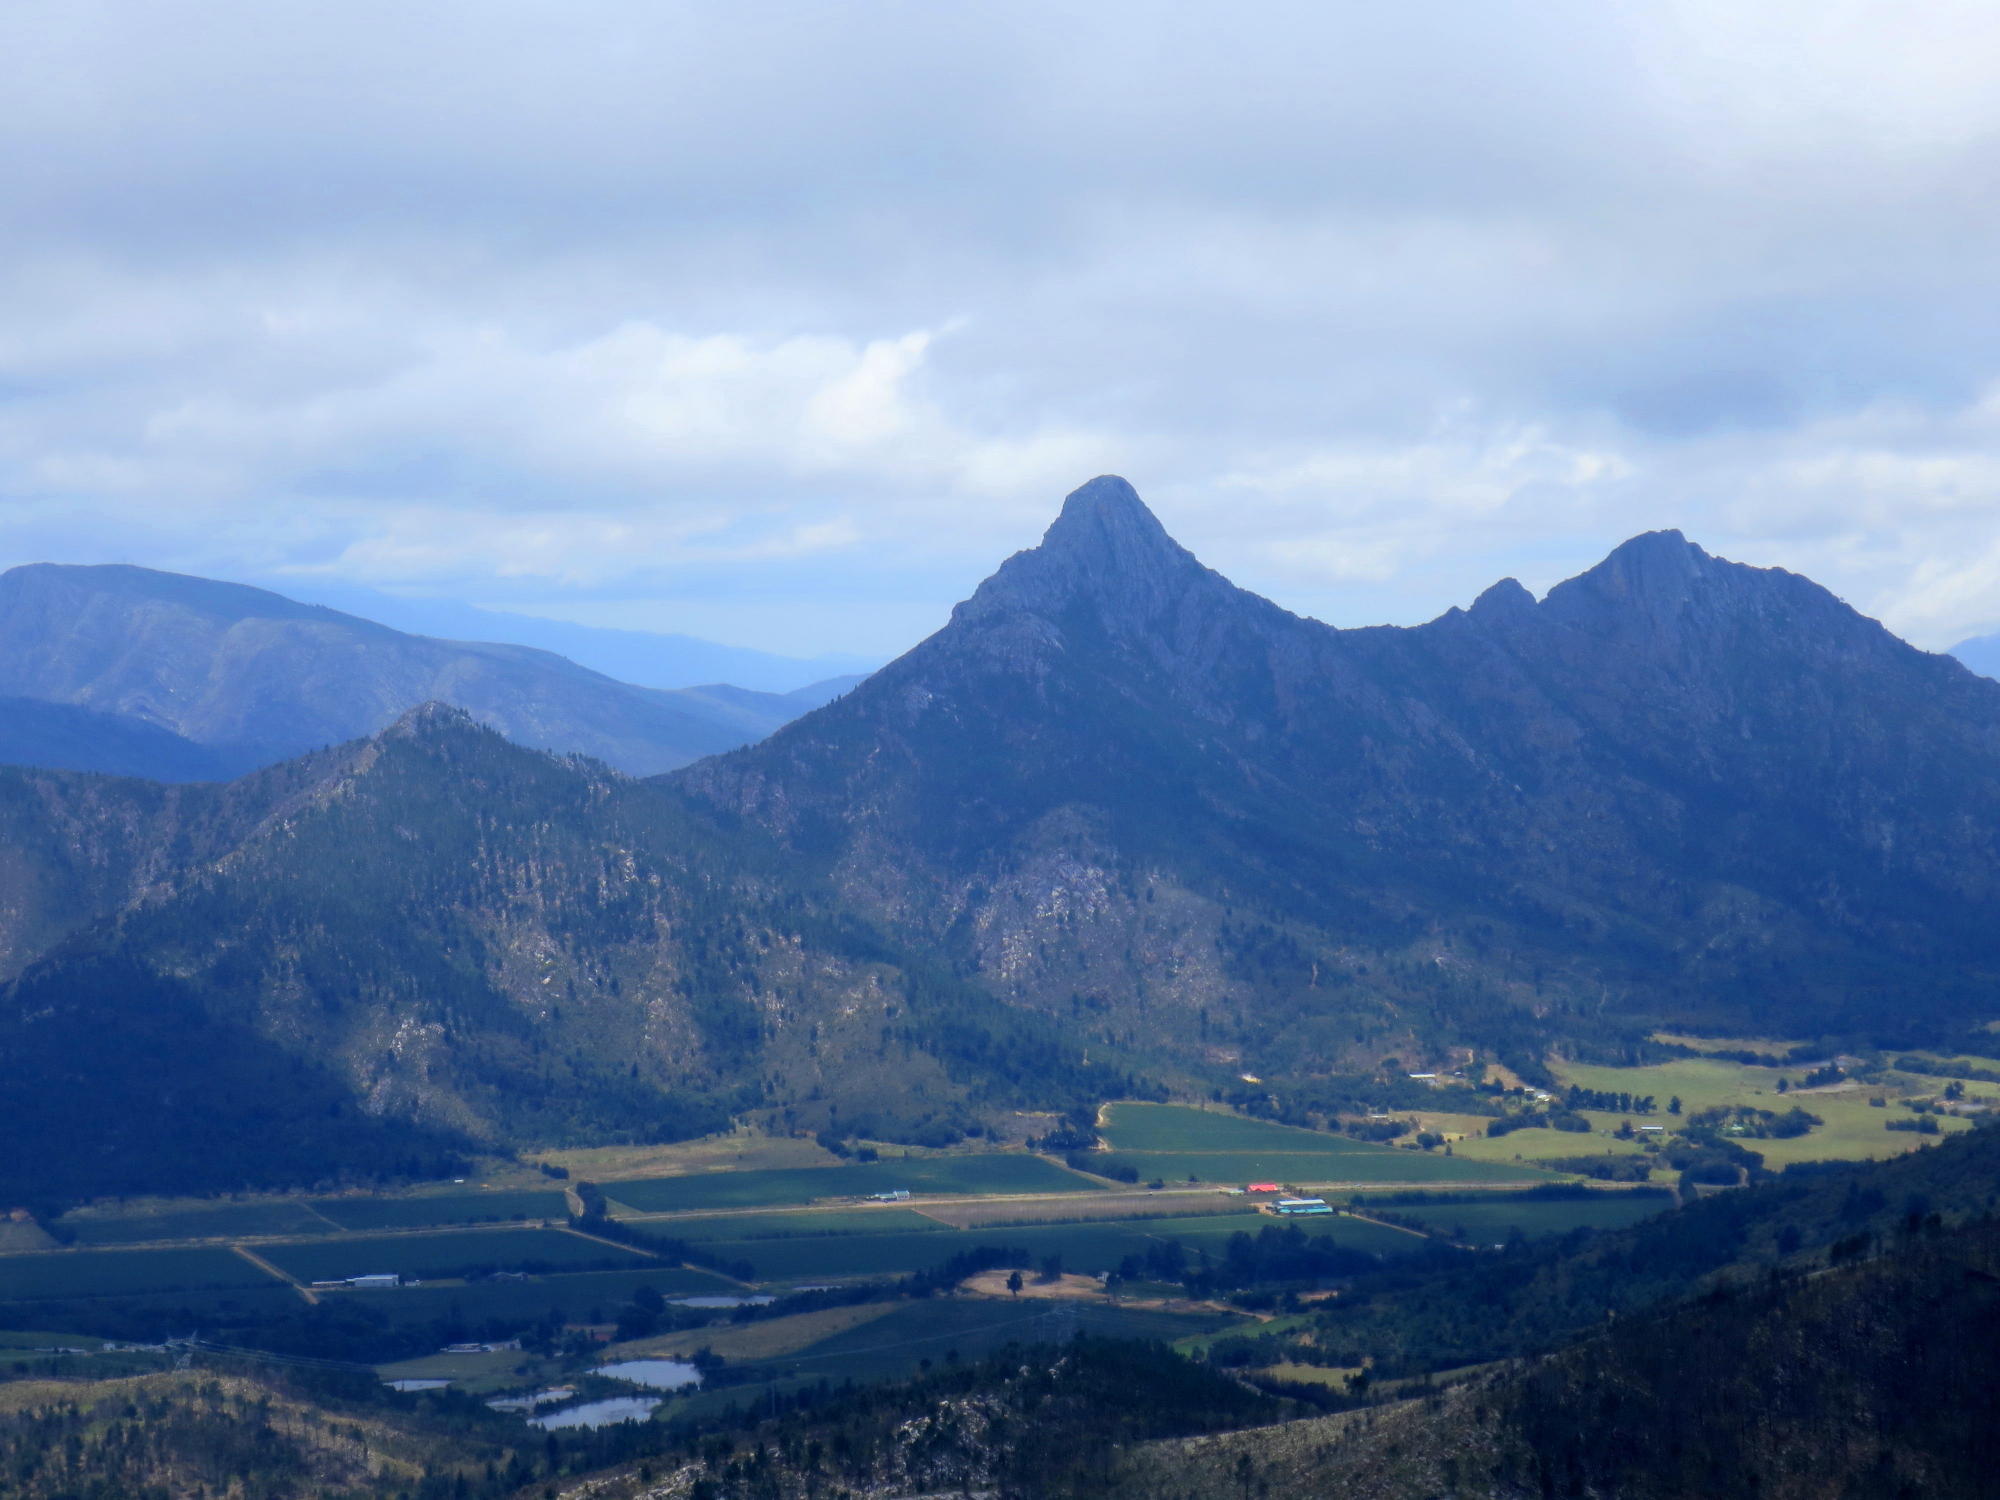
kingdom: Plantae
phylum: Tracheophyta
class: Pinopsida
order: Pinales
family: Pinaceae
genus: Pinus
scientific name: Pinus pinaster
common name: Maritime pine
